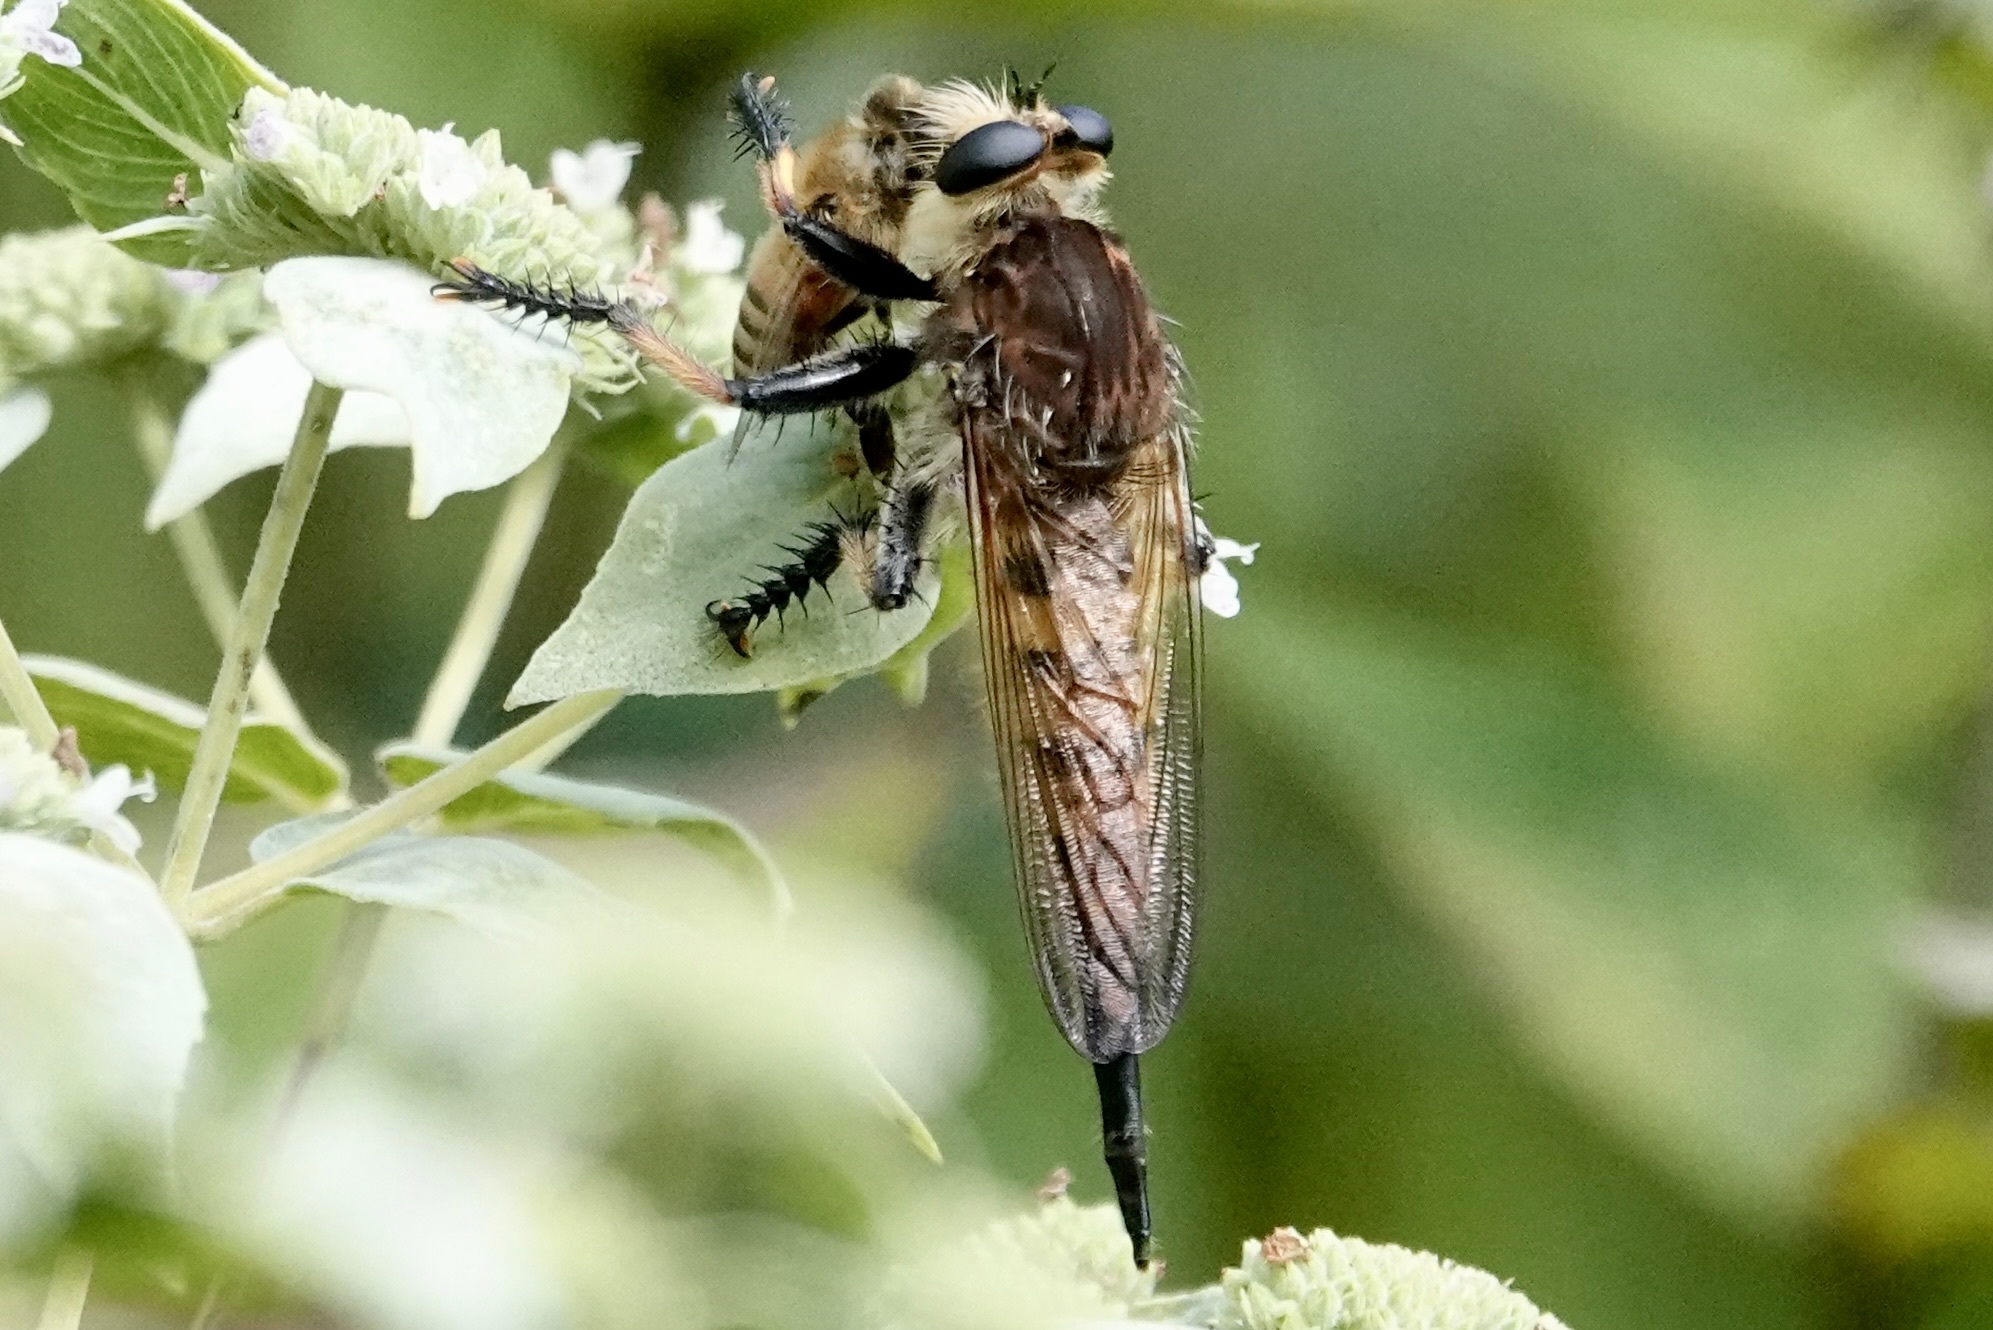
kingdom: Animalia
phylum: Arthropoda
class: Insecta
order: Diptera
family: Asilidae
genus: Promachus
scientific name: Promachus rufipes
